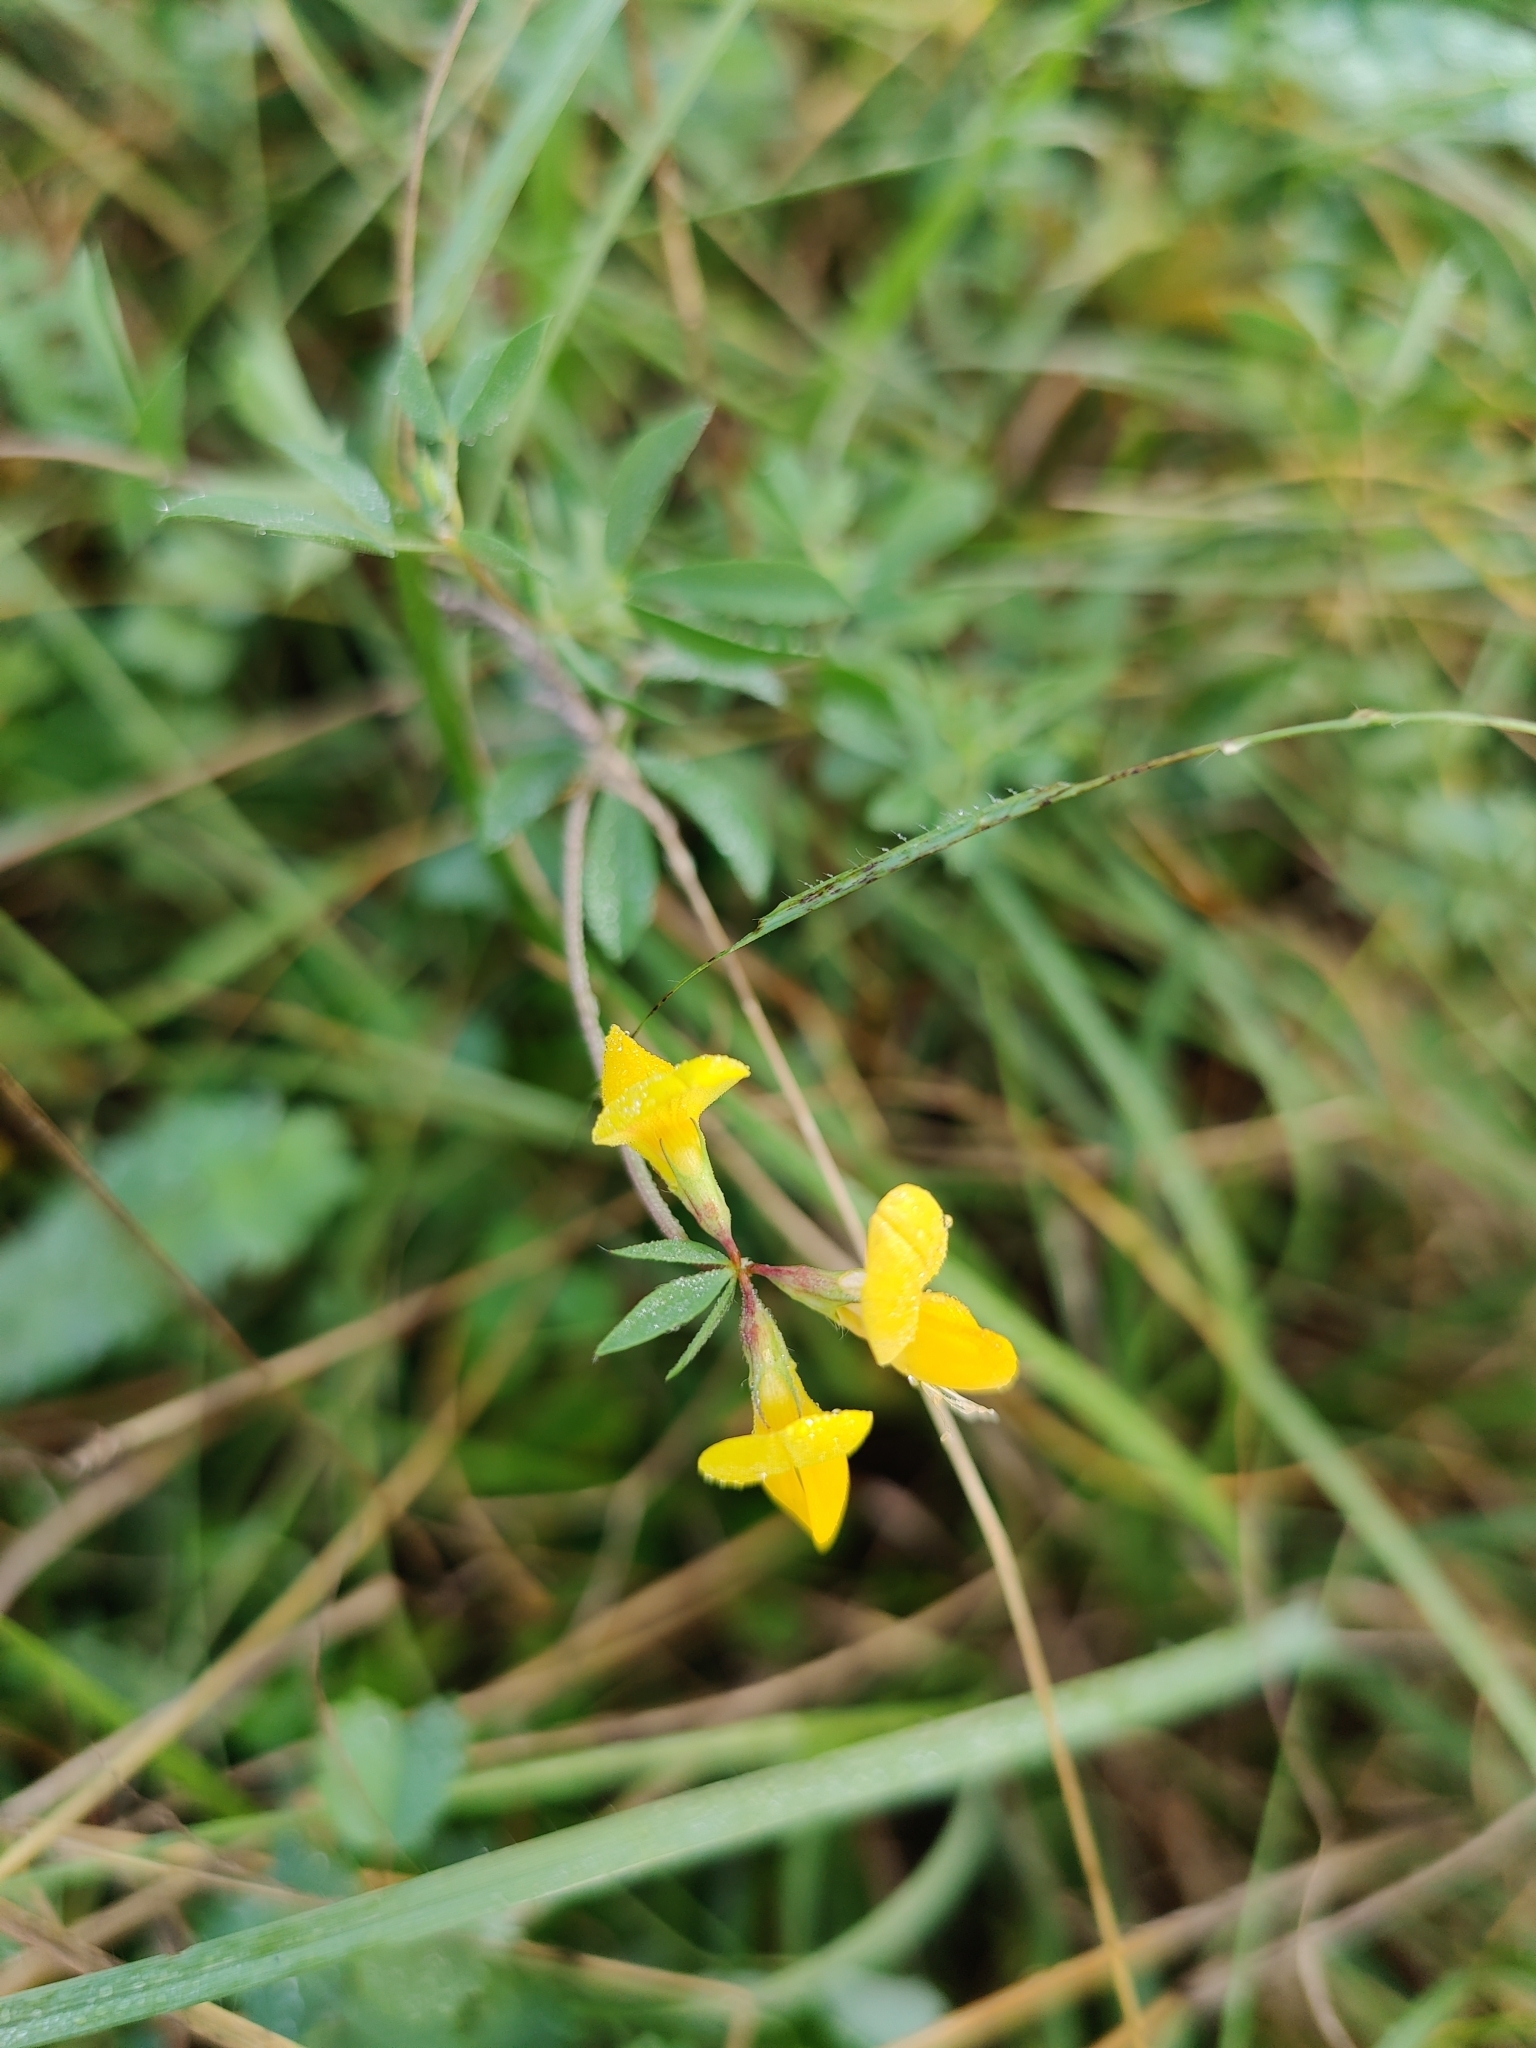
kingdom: Plantae
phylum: Tracheophyta
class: Magnoliopsida
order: Fabales
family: Fabaceae
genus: Lotus
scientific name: Lotus corniculatus
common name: Common bird's-foot-trefoil
